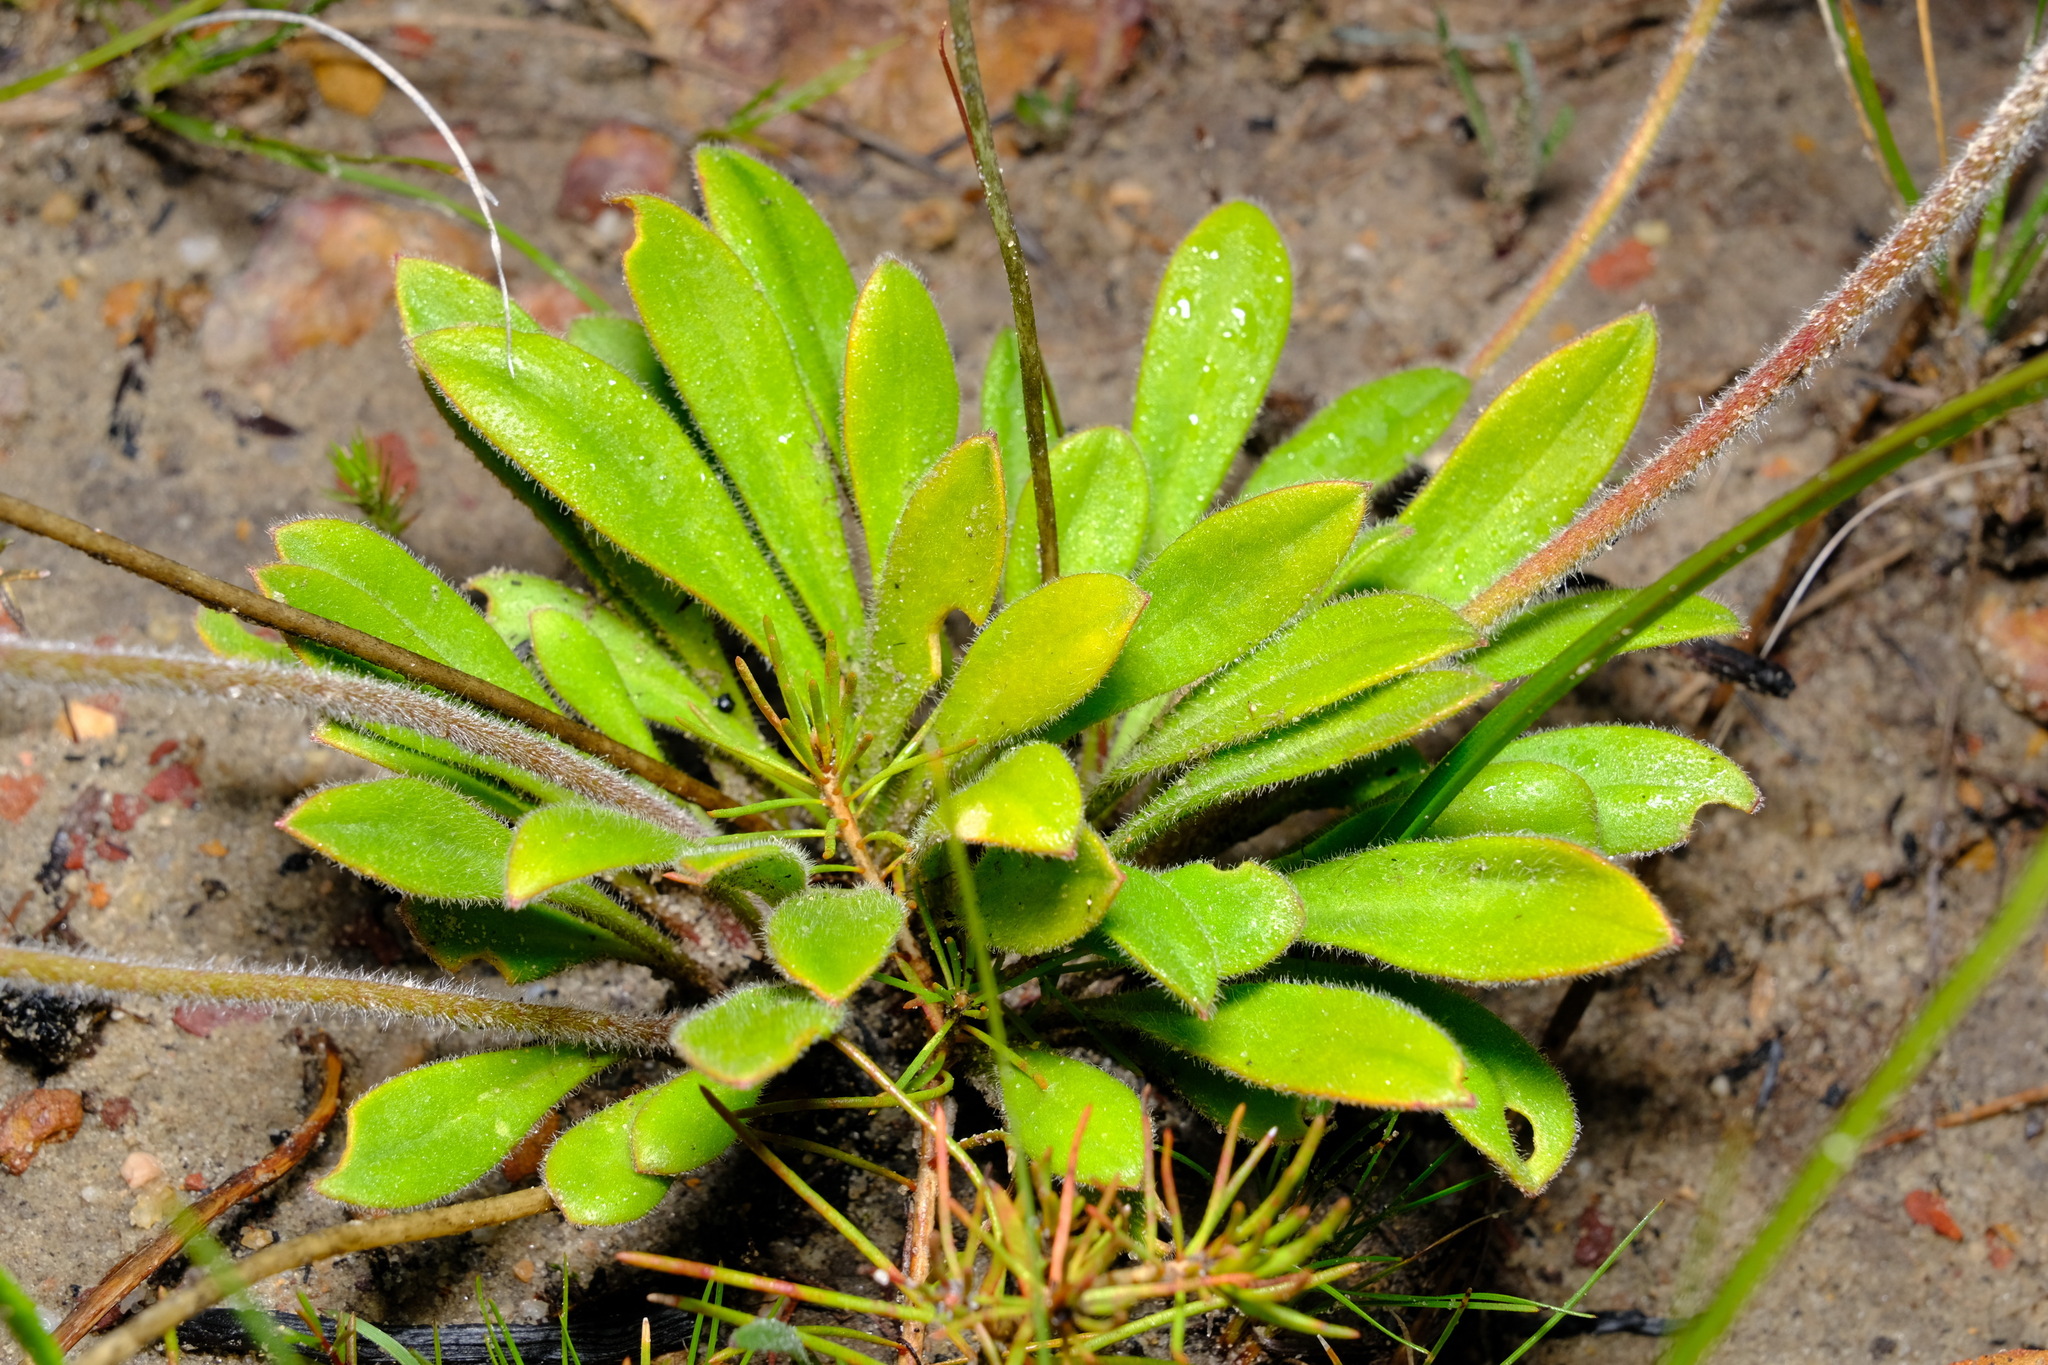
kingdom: Plantae
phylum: Tracheophyta
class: Magnoliopsida
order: Asterales
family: Stylidiaceae
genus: Stylidium
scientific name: Stylidium pycnostachyum
